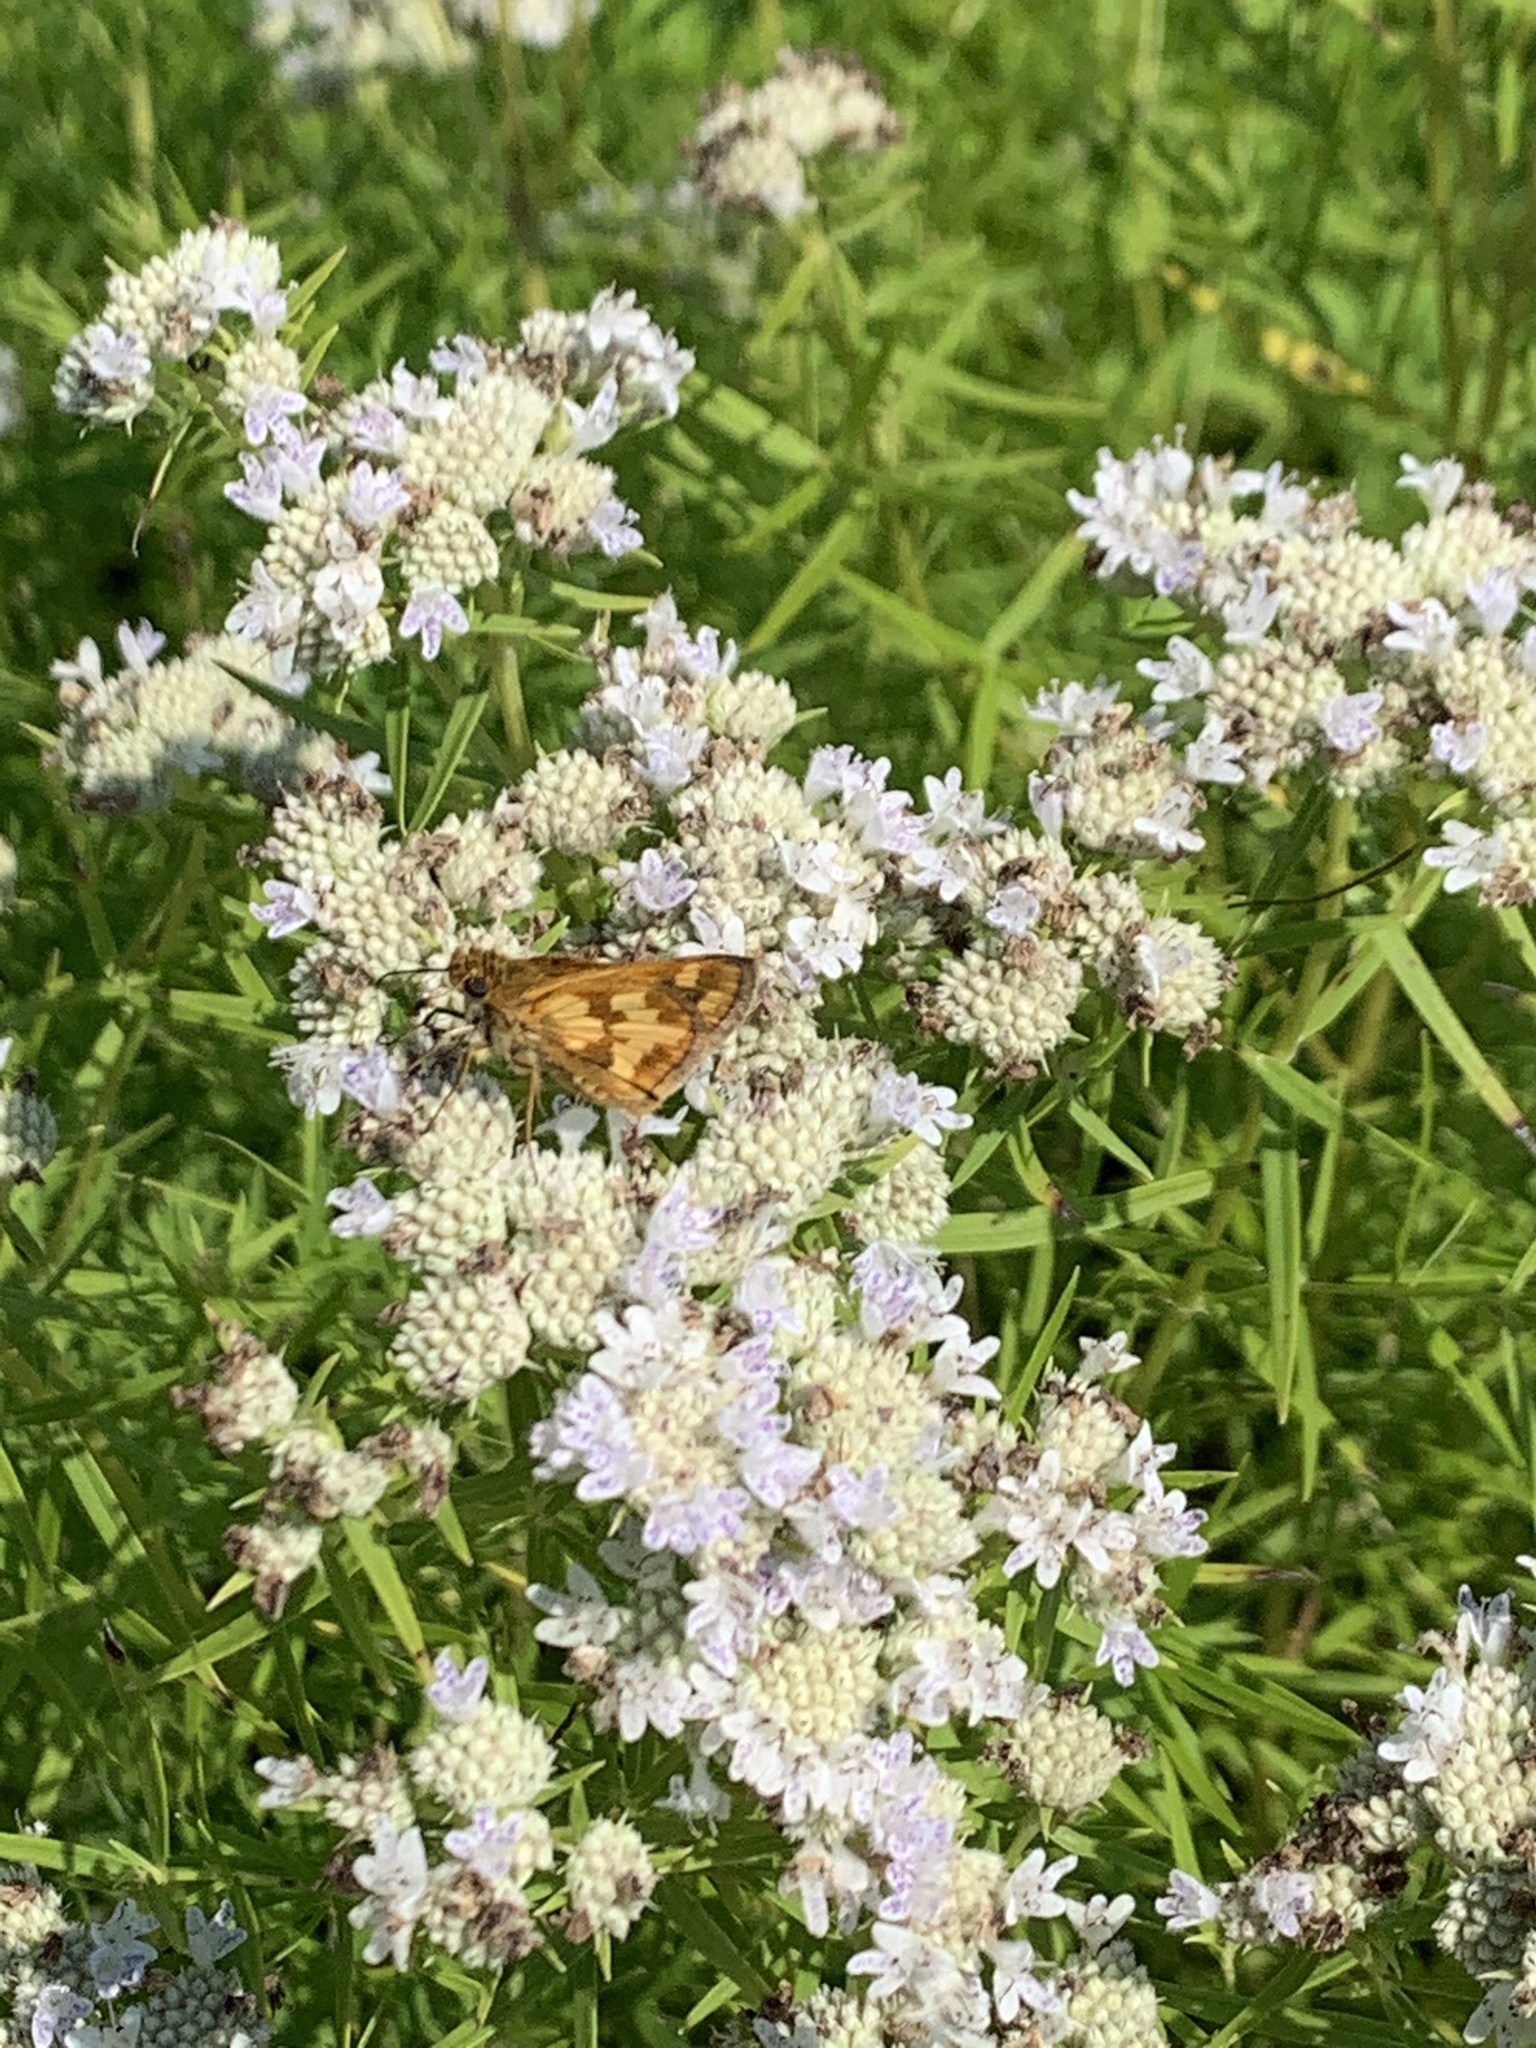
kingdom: Animalia
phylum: Arthropoda
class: Insecta
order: Lepidoptera
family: Hesperiidae
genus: Polites
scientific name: Polites coras
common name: Peck's skipper
